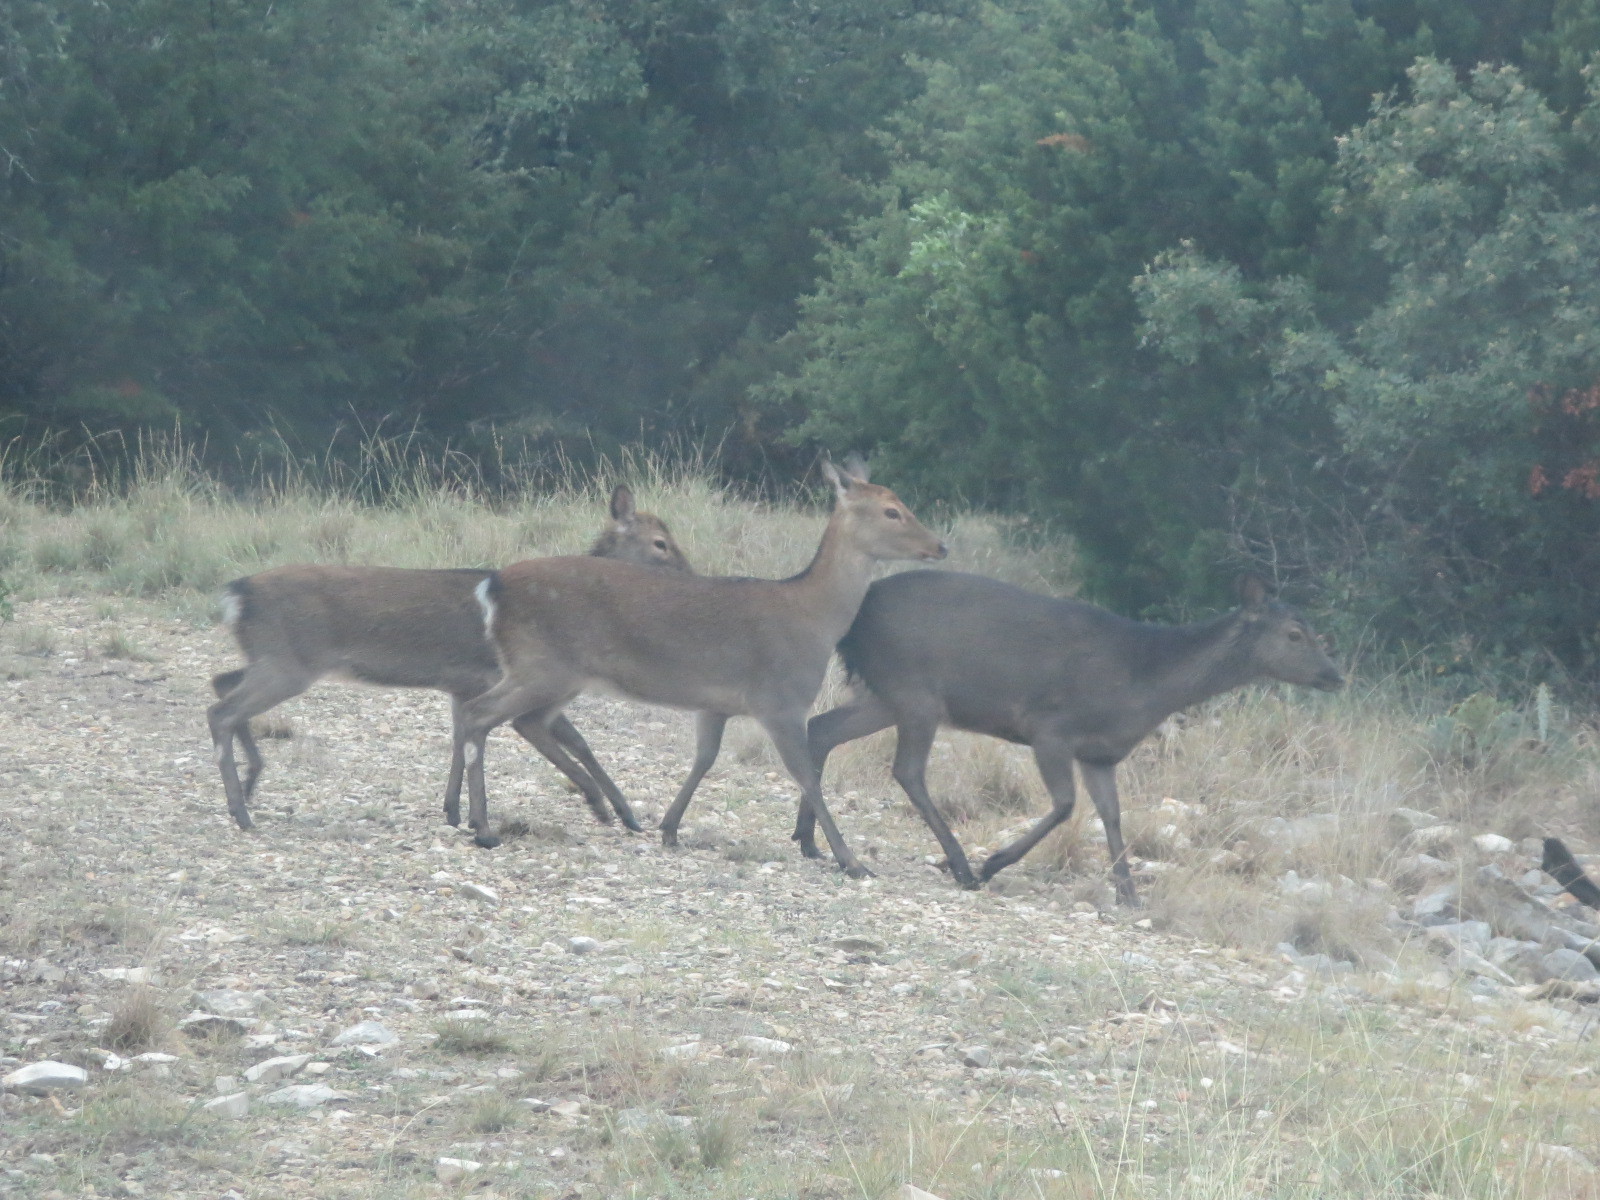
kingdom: Animalia
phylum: Chordata
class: Mammalia
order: Artiodactyla
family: Cervidae
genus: Cervus
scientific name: Cervus nippon
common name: Sika deer
